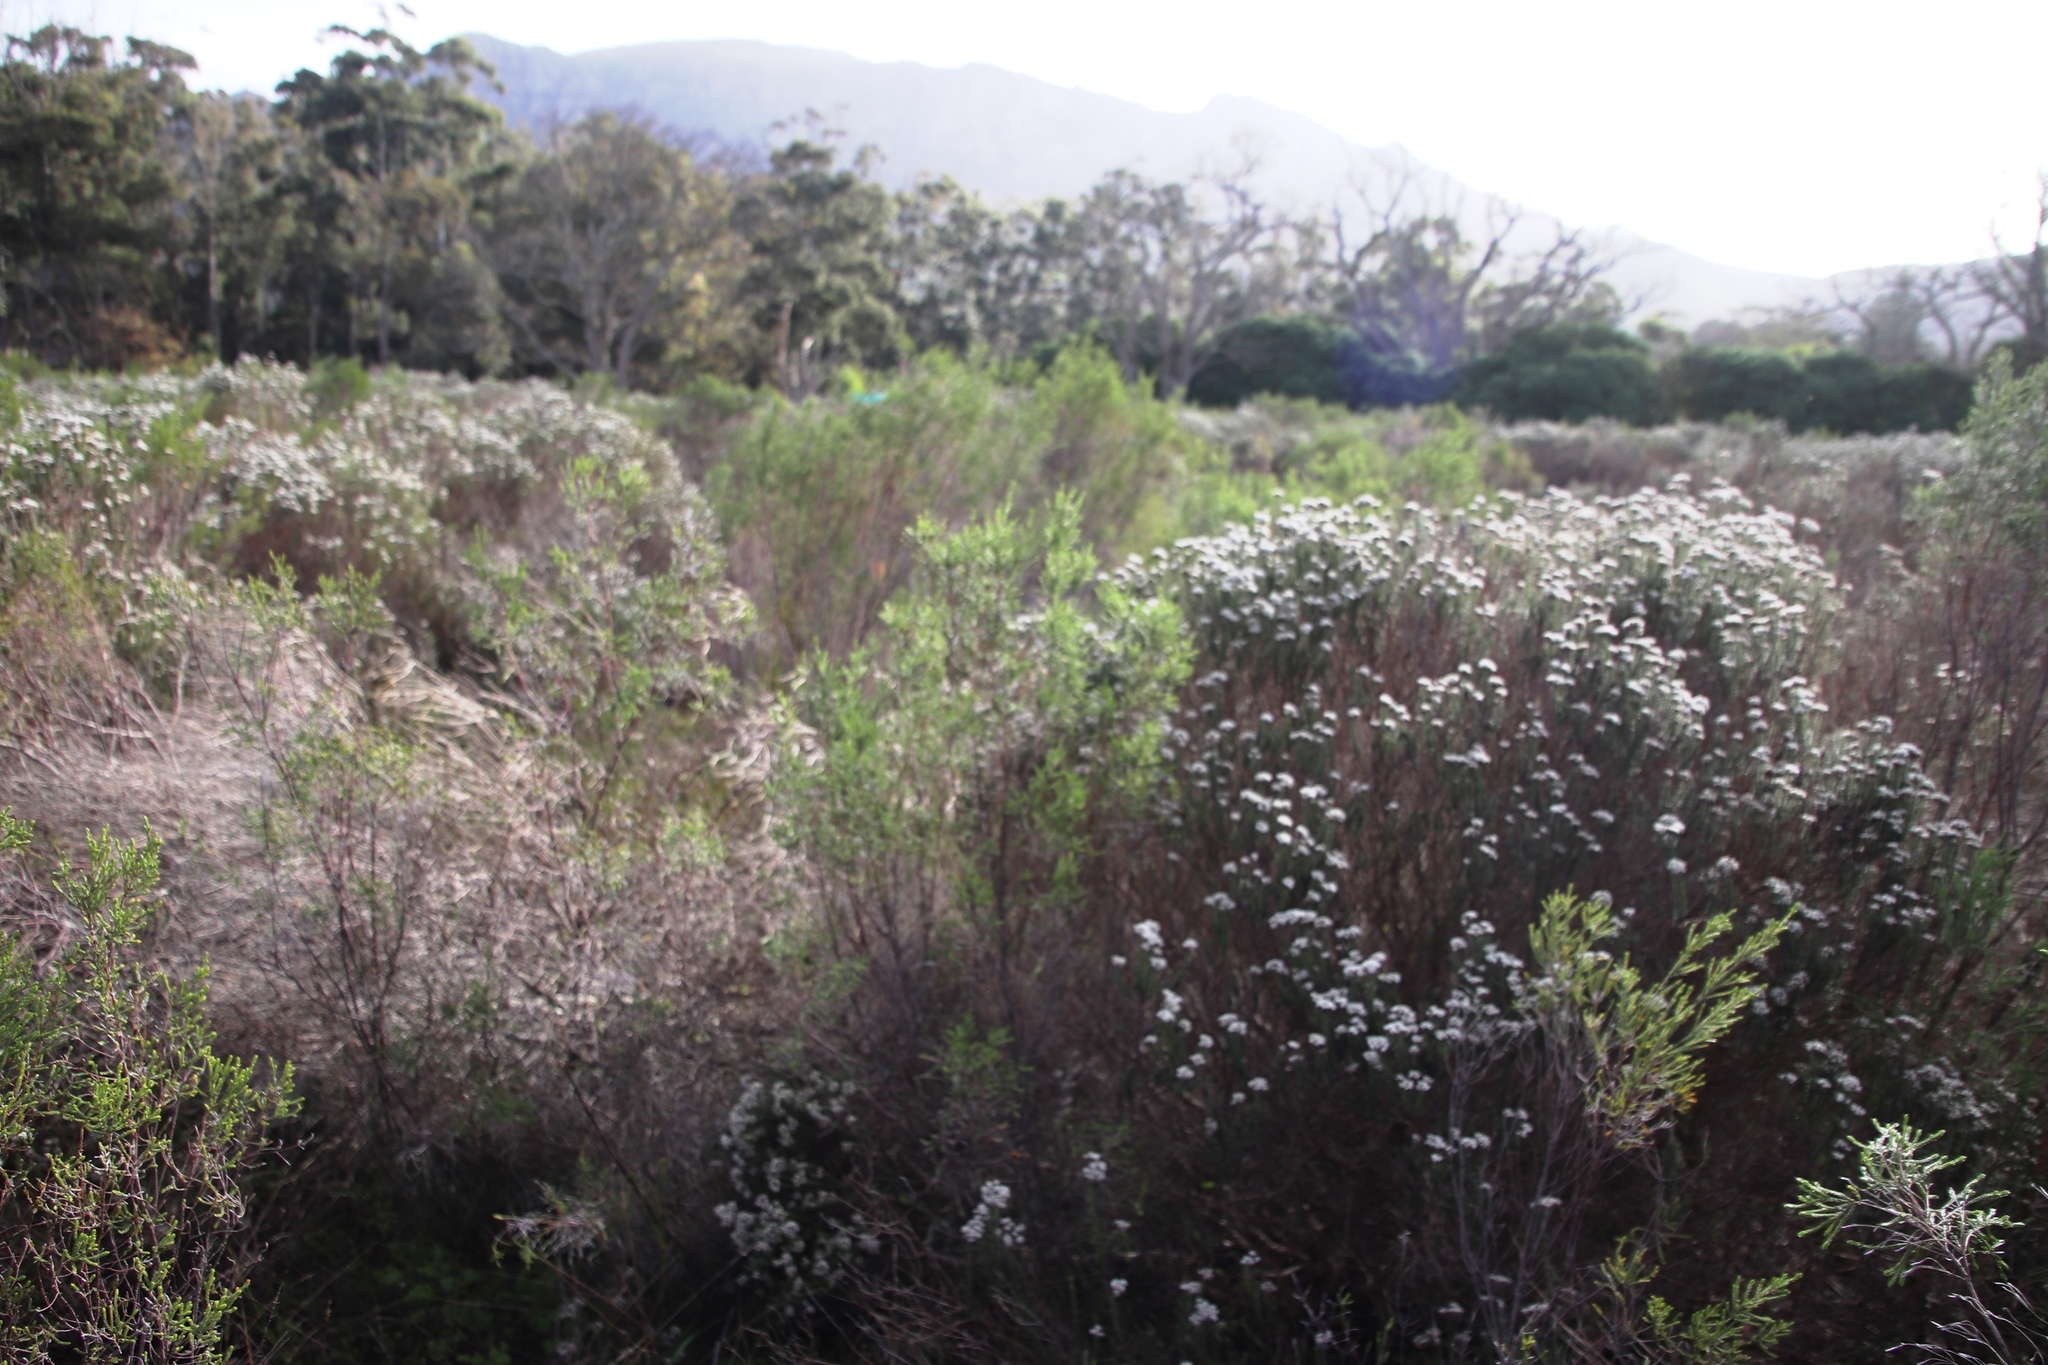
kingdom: Plantae
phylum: Tracheophyta
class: Magnoliopsida
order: Malvales
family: Thymelaeaceae
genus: Passerina
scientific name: Passerina corymbosa
